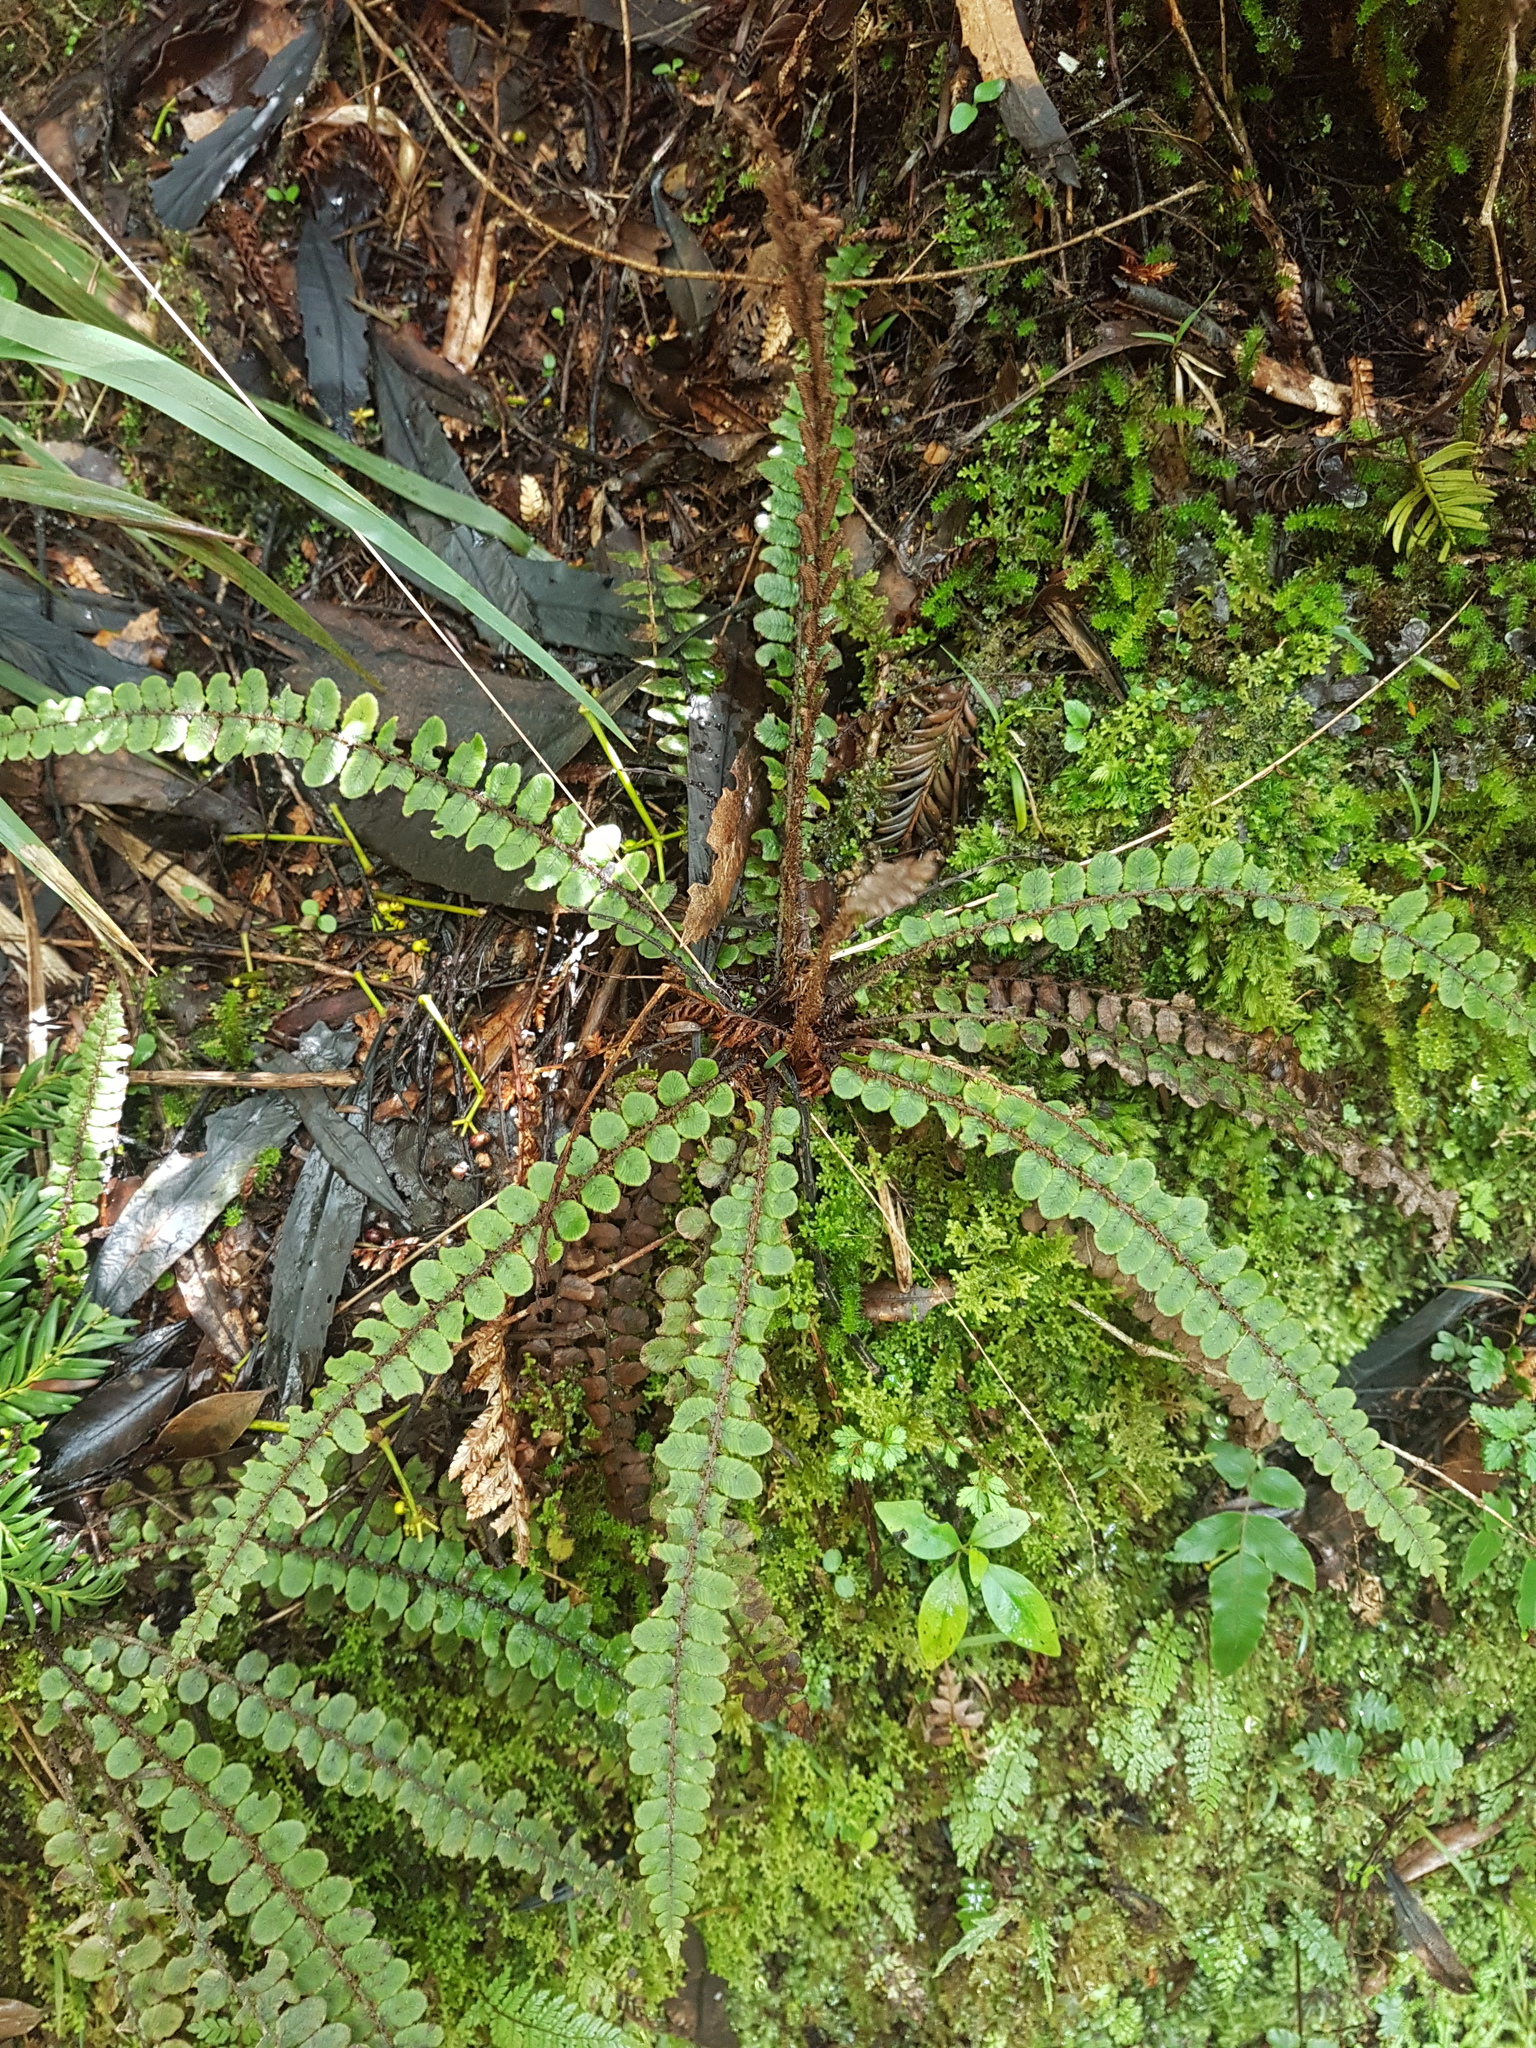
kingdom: Plantae
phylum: Tracheophyta
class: Polypodiopsida
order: Polypodiales
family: Blechnaceae
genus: Cranfillia
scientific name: Cranfillia fluviatilis
